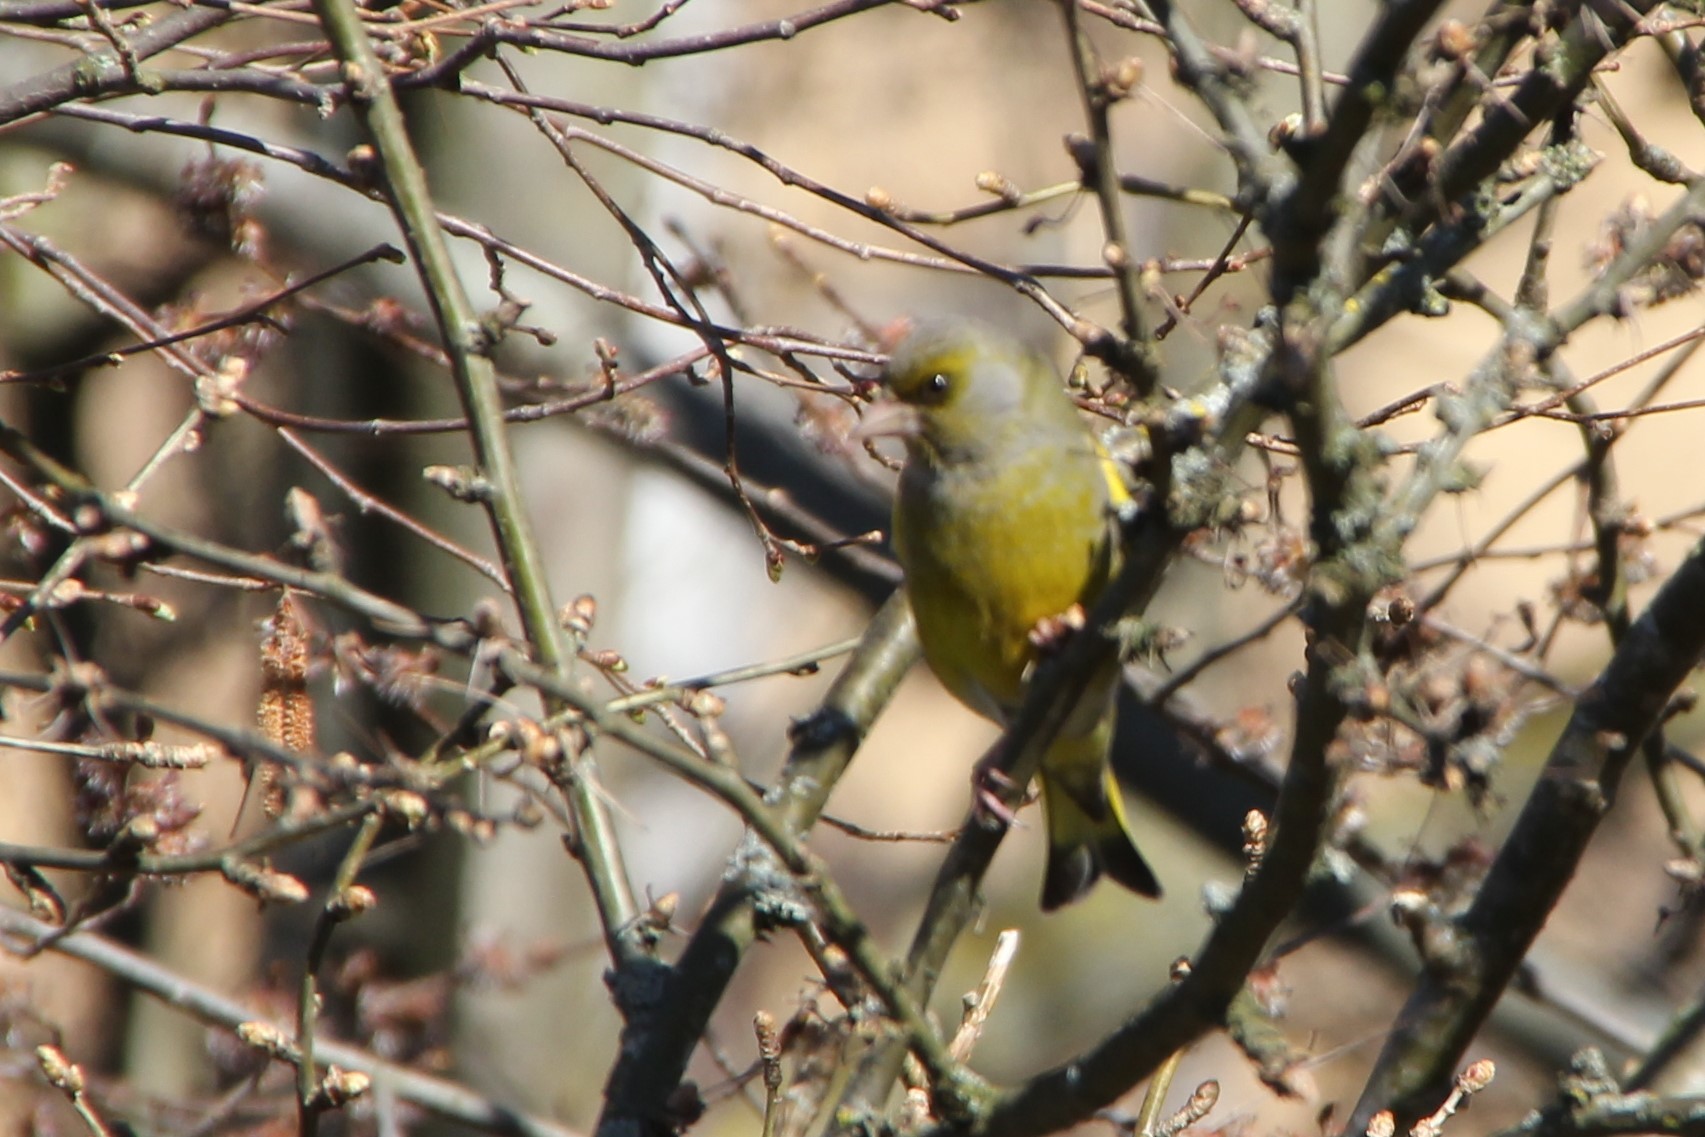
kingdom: Plantae
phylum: Tracheophyta
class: Liliopsida
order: Poales
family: Poaceae
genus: Chloris
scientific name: Chloris chloris
